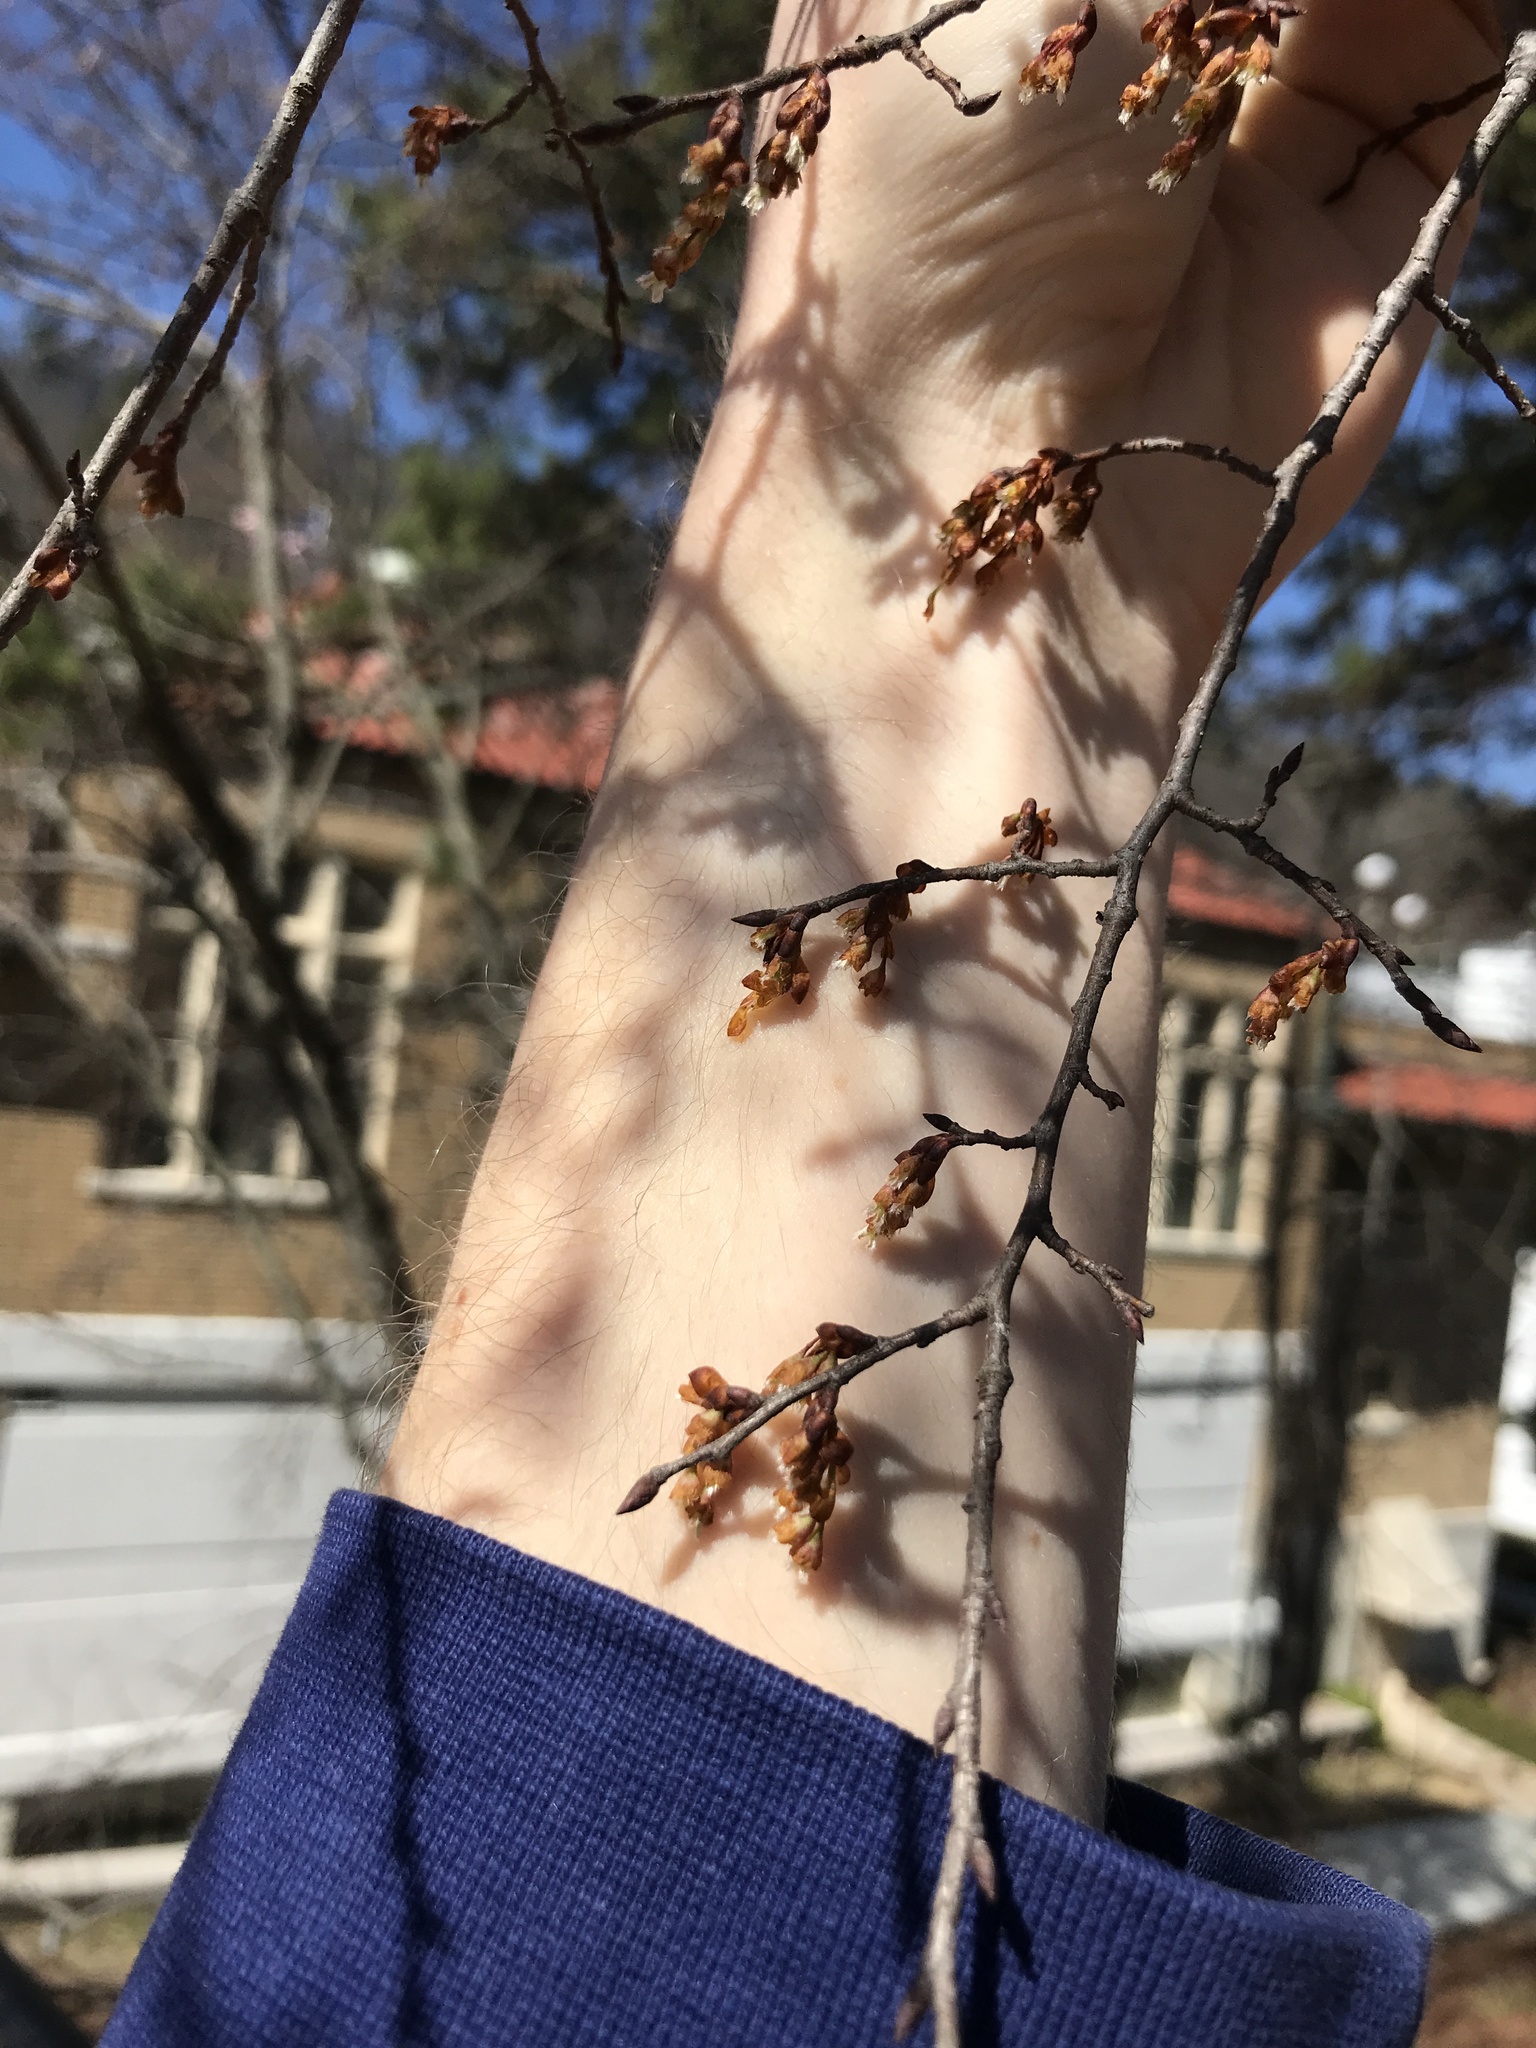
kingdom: Plantae
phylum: Tracheophyta
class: Magnoliopsida
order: Rosales
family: Ulmaceae
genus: Ulmus
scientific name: Ulmus alata
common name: Winged elm
